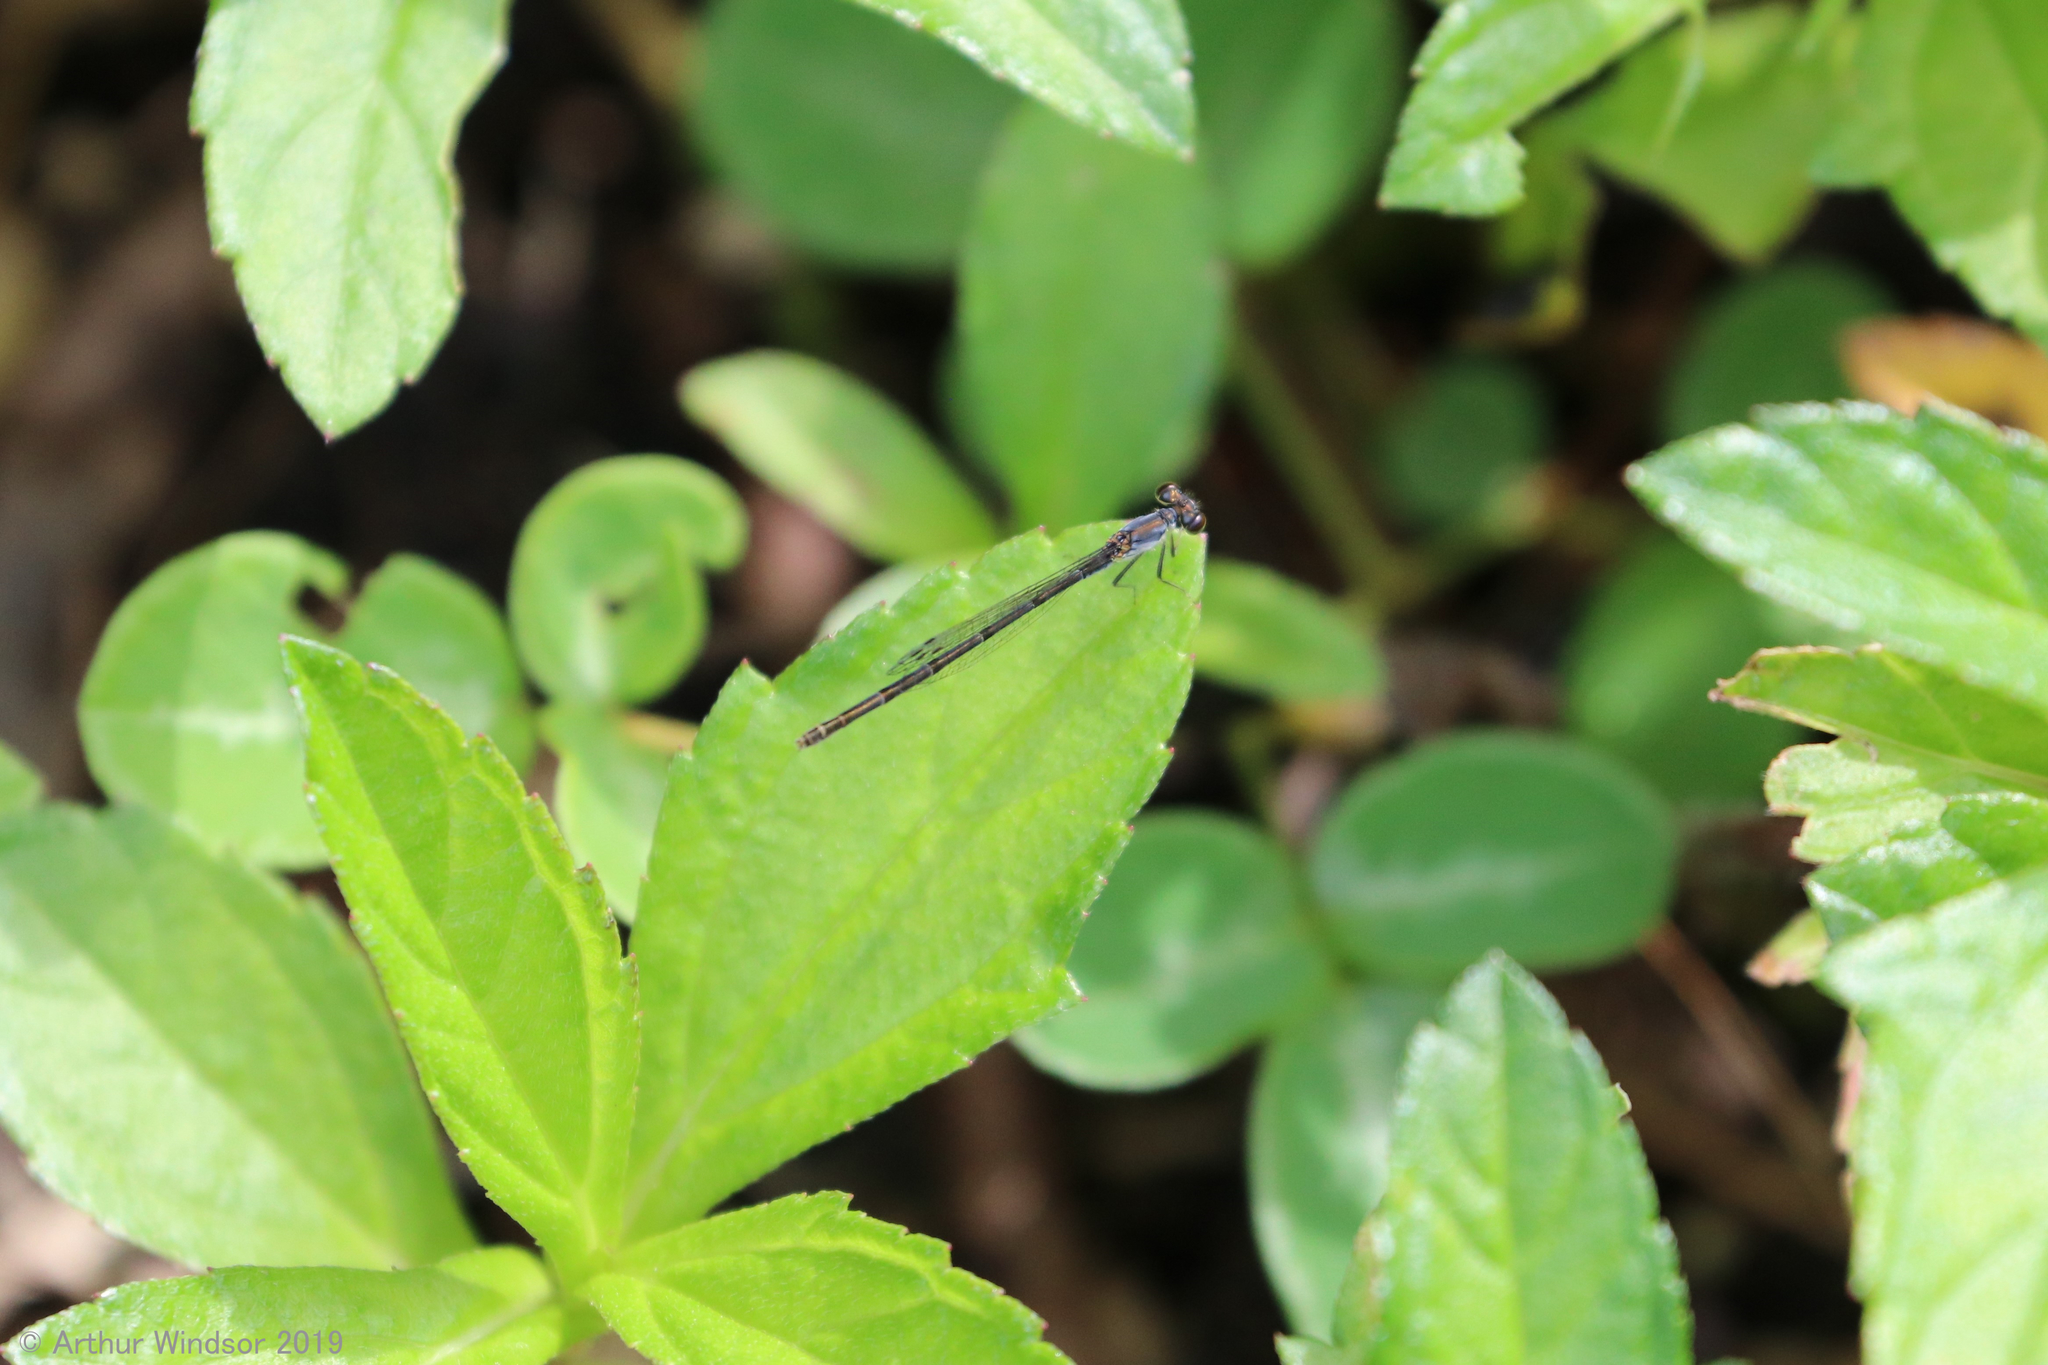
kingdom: Animalia
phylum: Arthropoda
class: Insecta
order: Odonata
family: Coenagrionidae
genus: Ischnura
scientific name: Ischnura posita
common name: Fragile forktail
